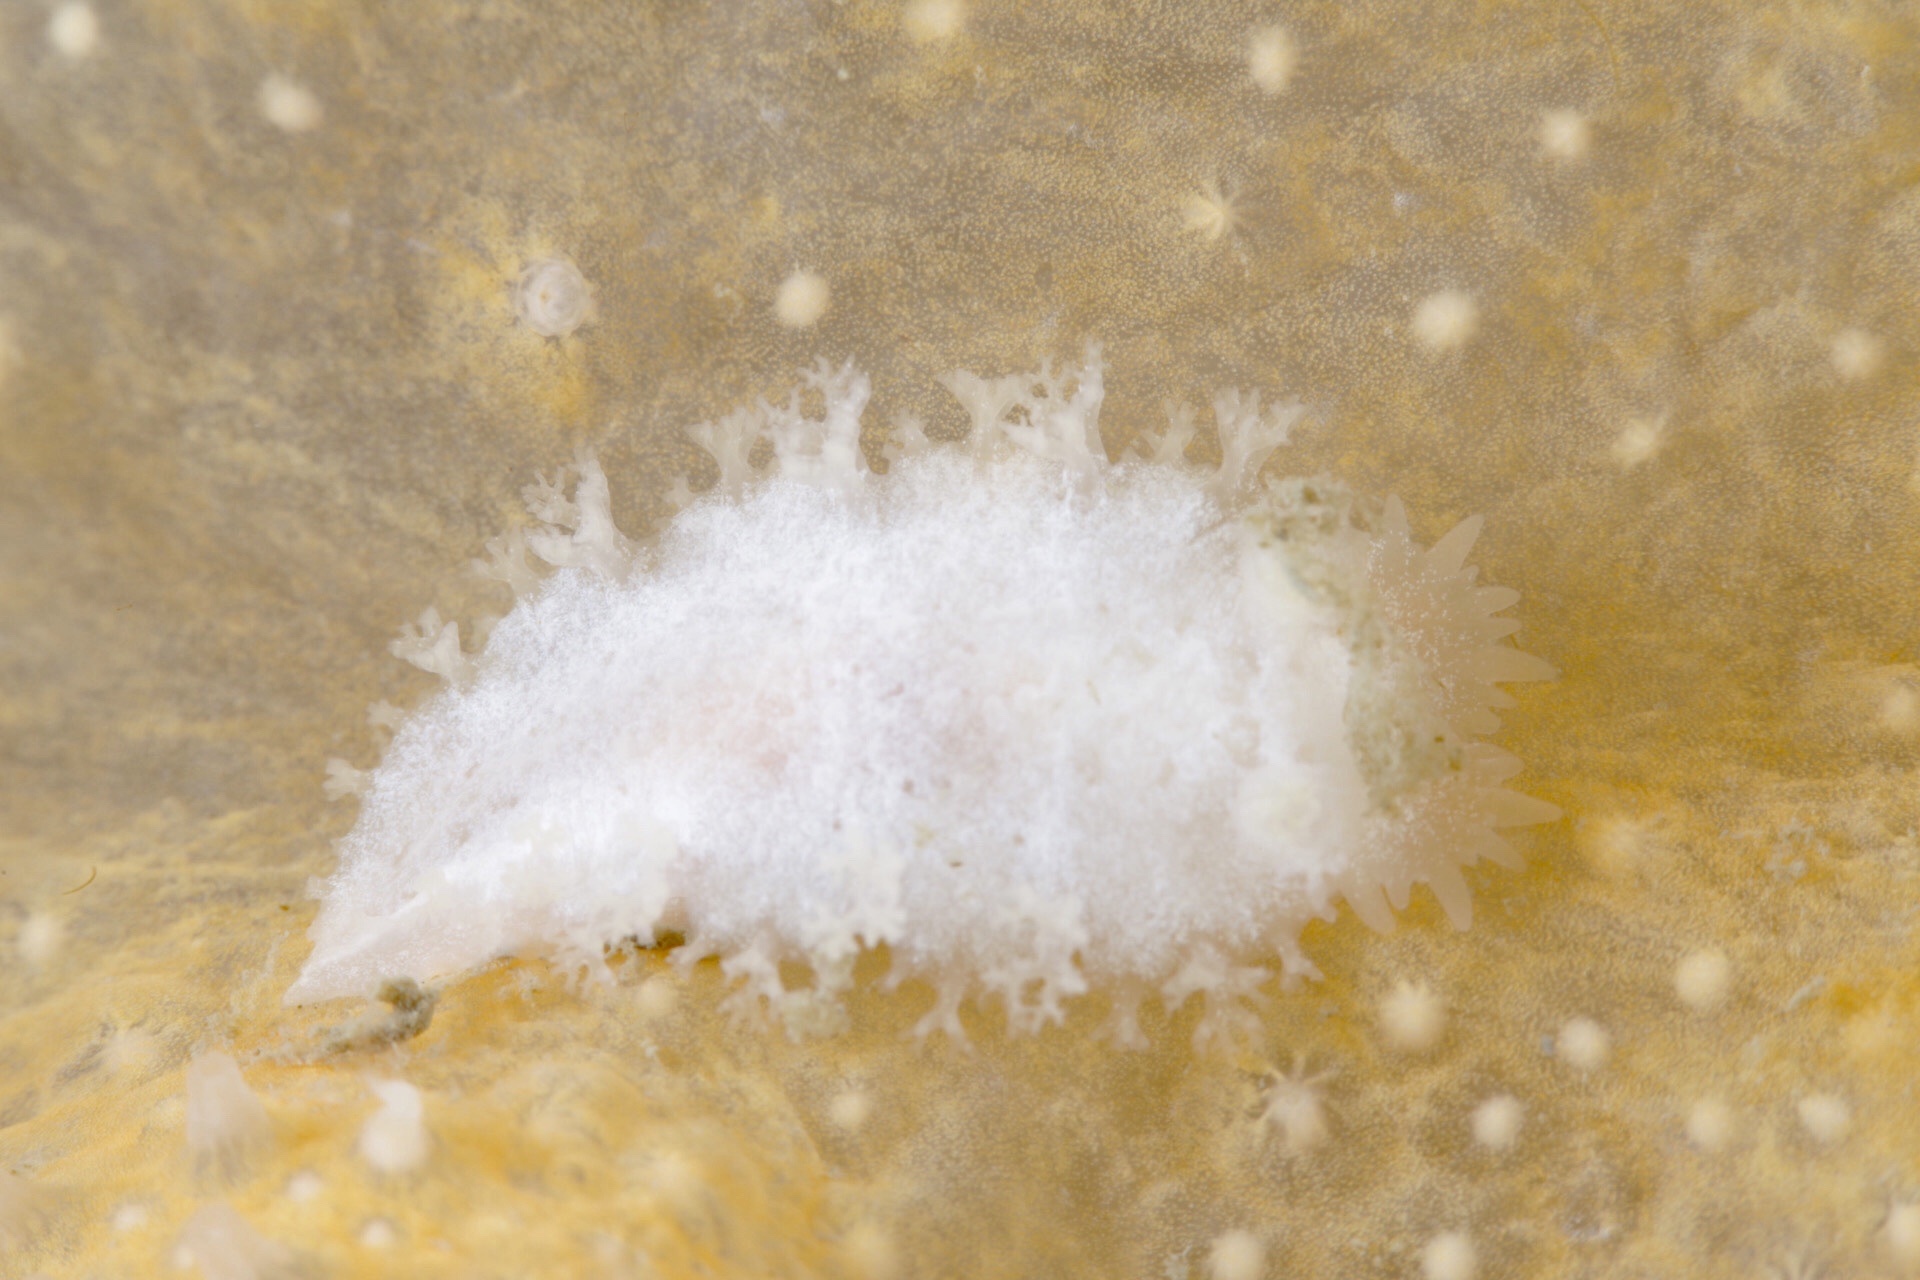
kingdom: Animalia
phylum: Mollusca
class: Gastropoda
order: Nudibranchia
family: Tritoniidae
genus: Tritonia
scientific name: Tritonia hombergii
